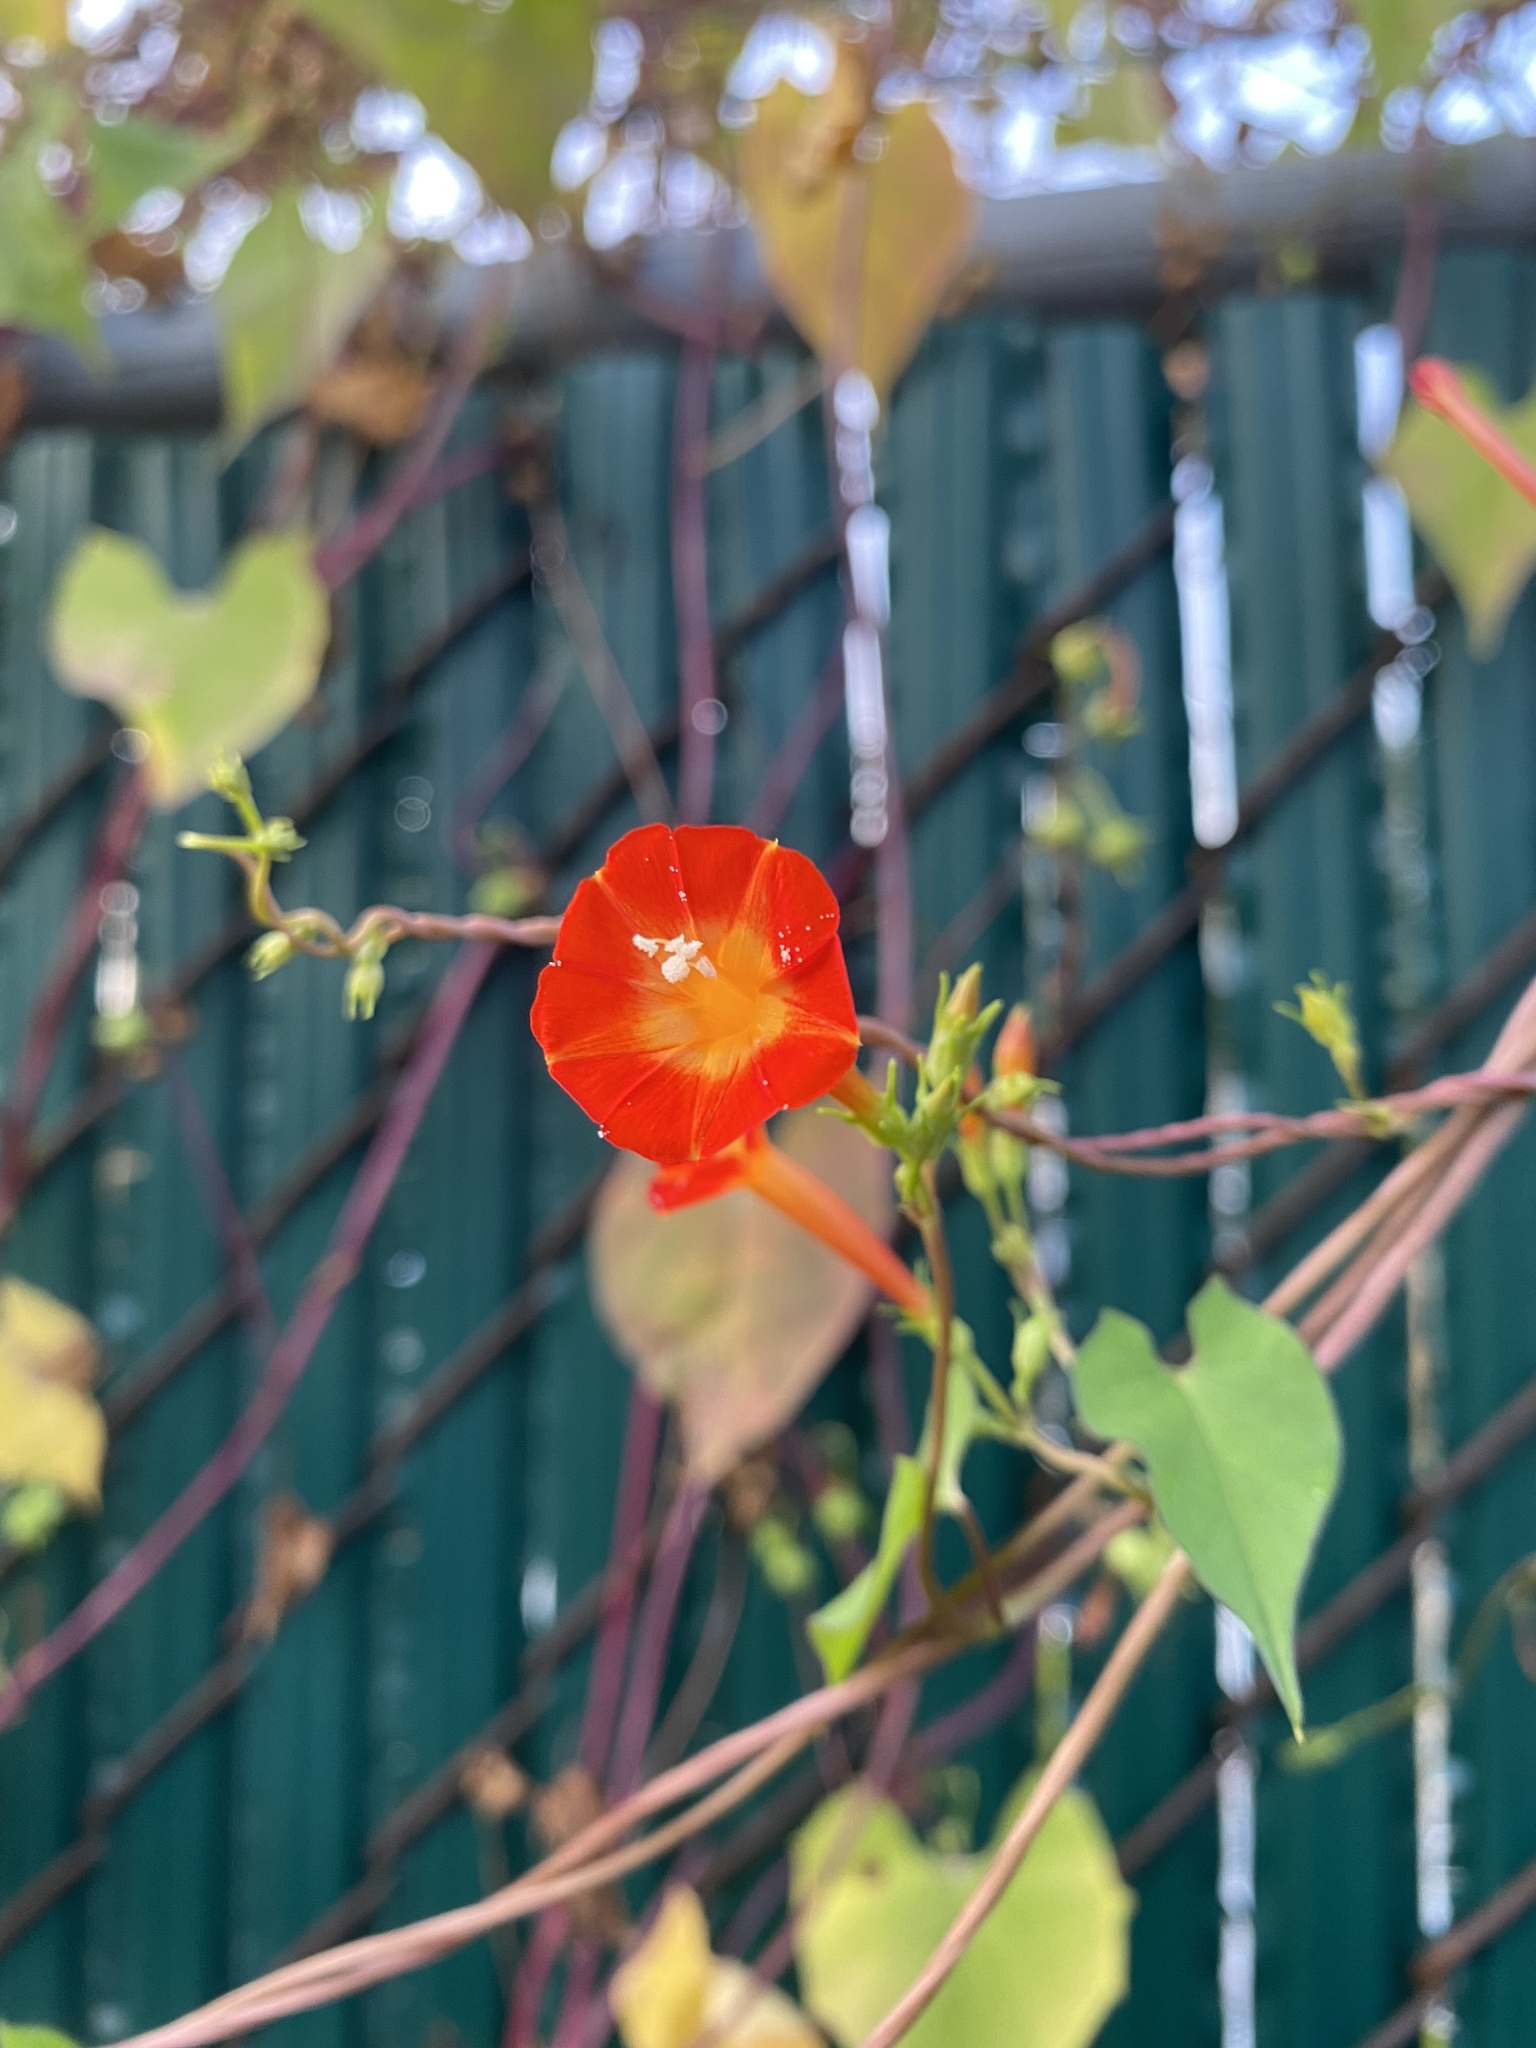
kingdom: Plantae
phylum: Tracheophyta
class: Magnoliopsida
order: Solanales
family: Convolvulaceae
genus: Ipomoea
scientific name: Ipomoea coccinea
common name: Red morning-glory
